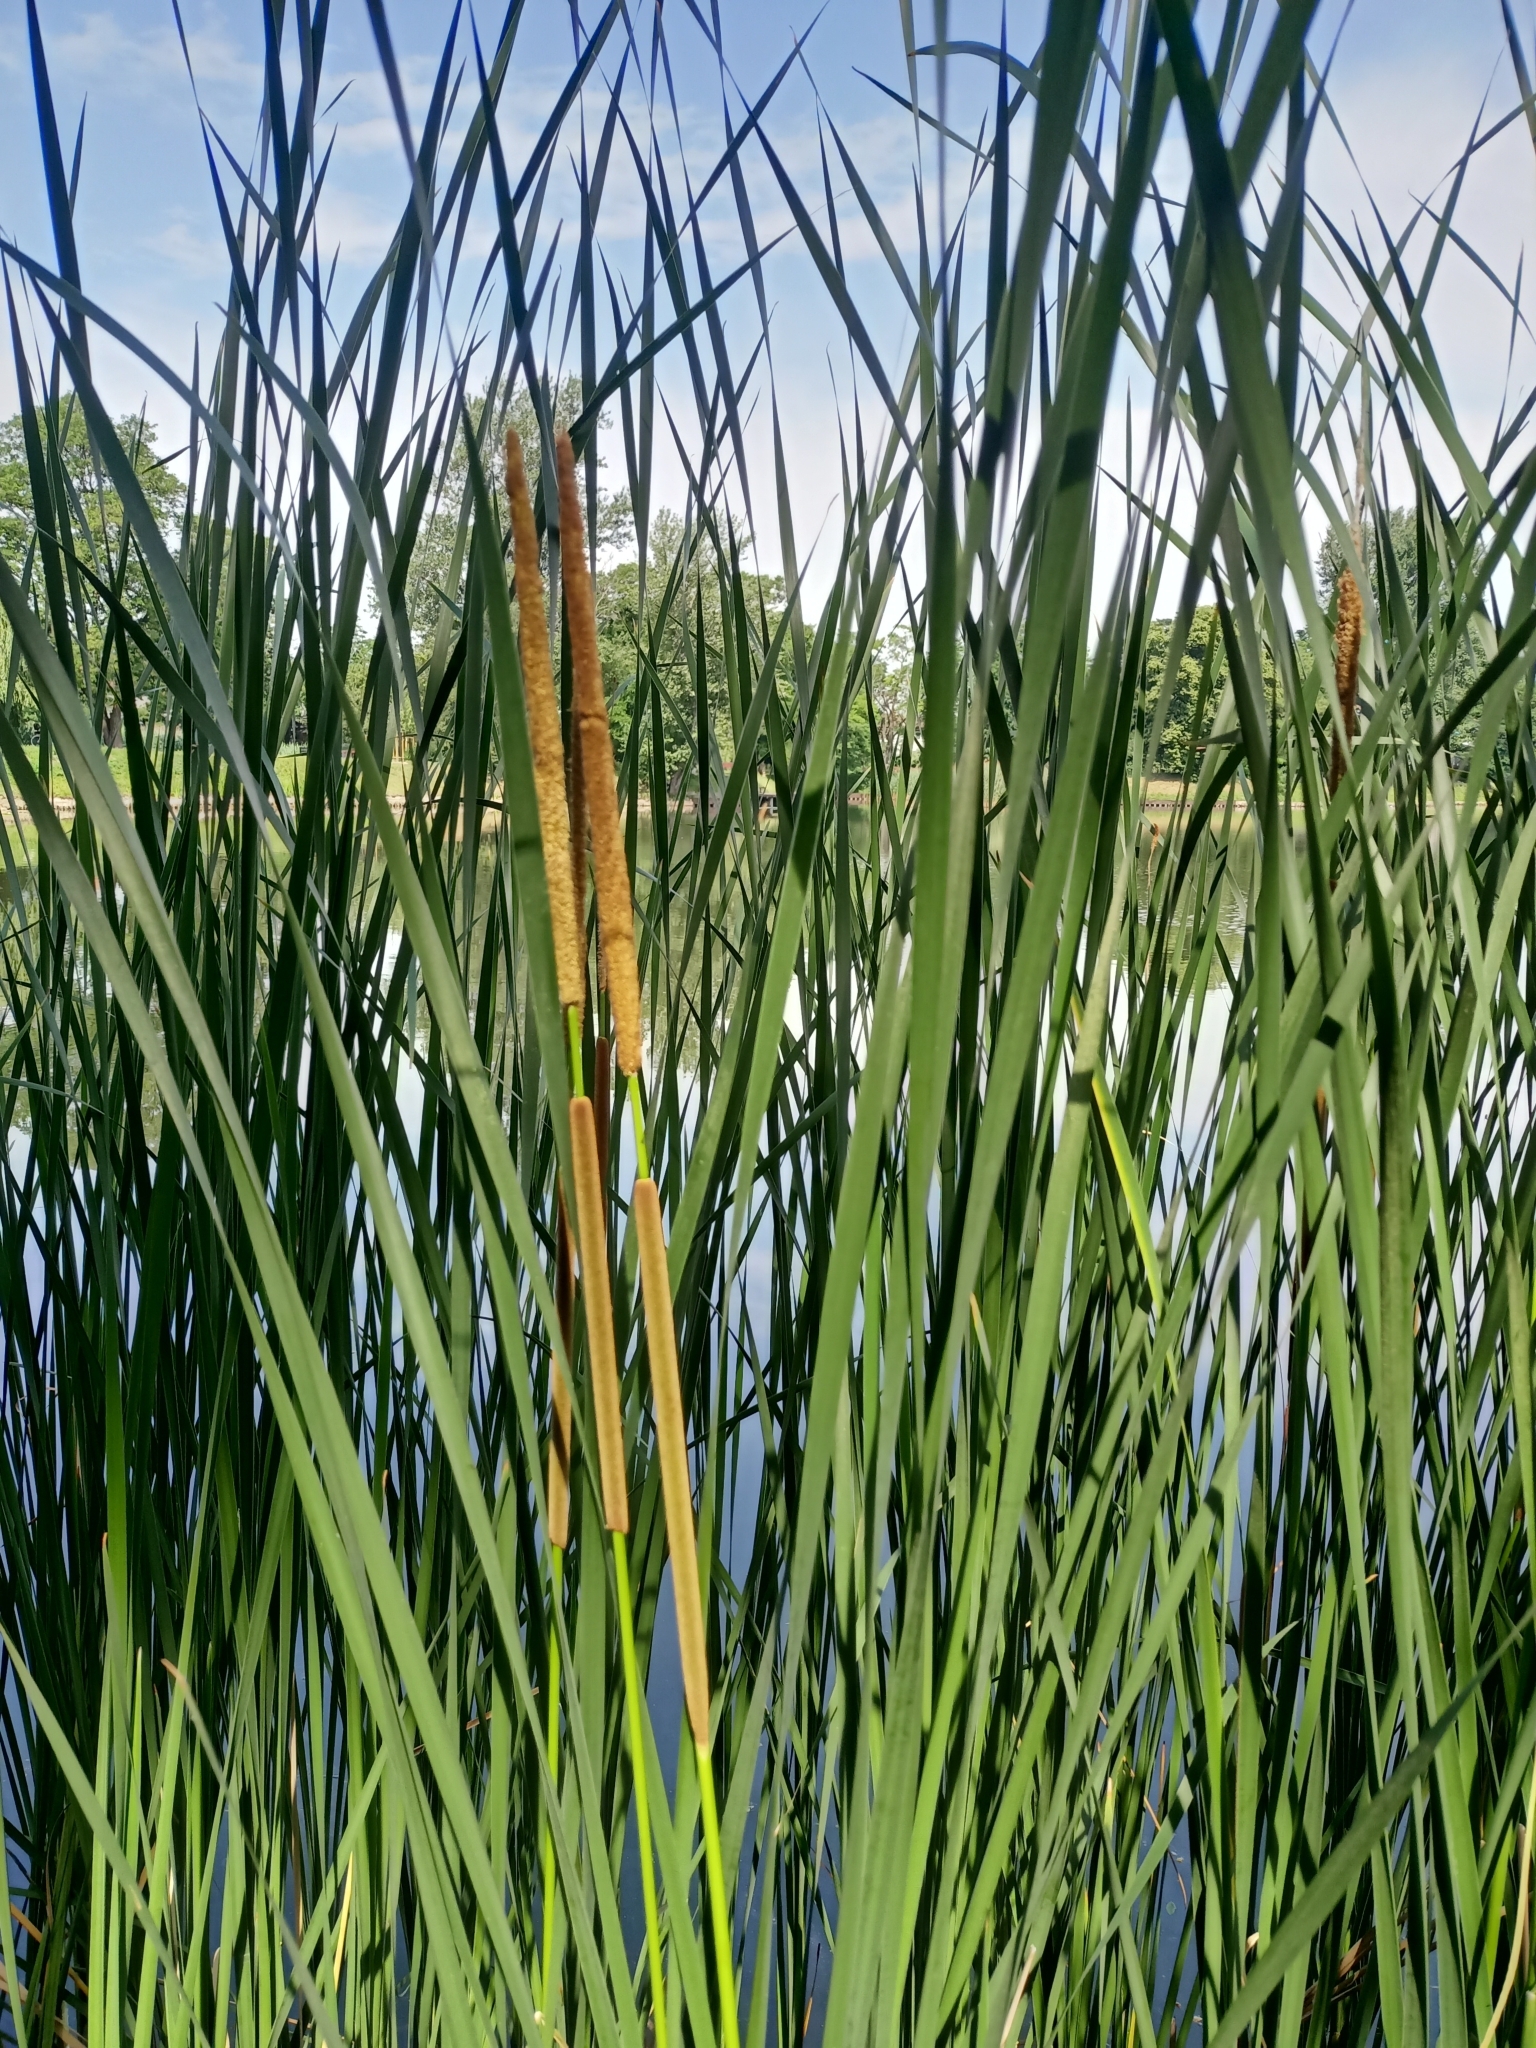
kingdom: Plantae
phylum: Tracheophyta
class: Liliopsida
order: Poales
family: Typhaceae
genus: Typha
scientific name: Typha angustifolia
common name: Lesser bulrush
